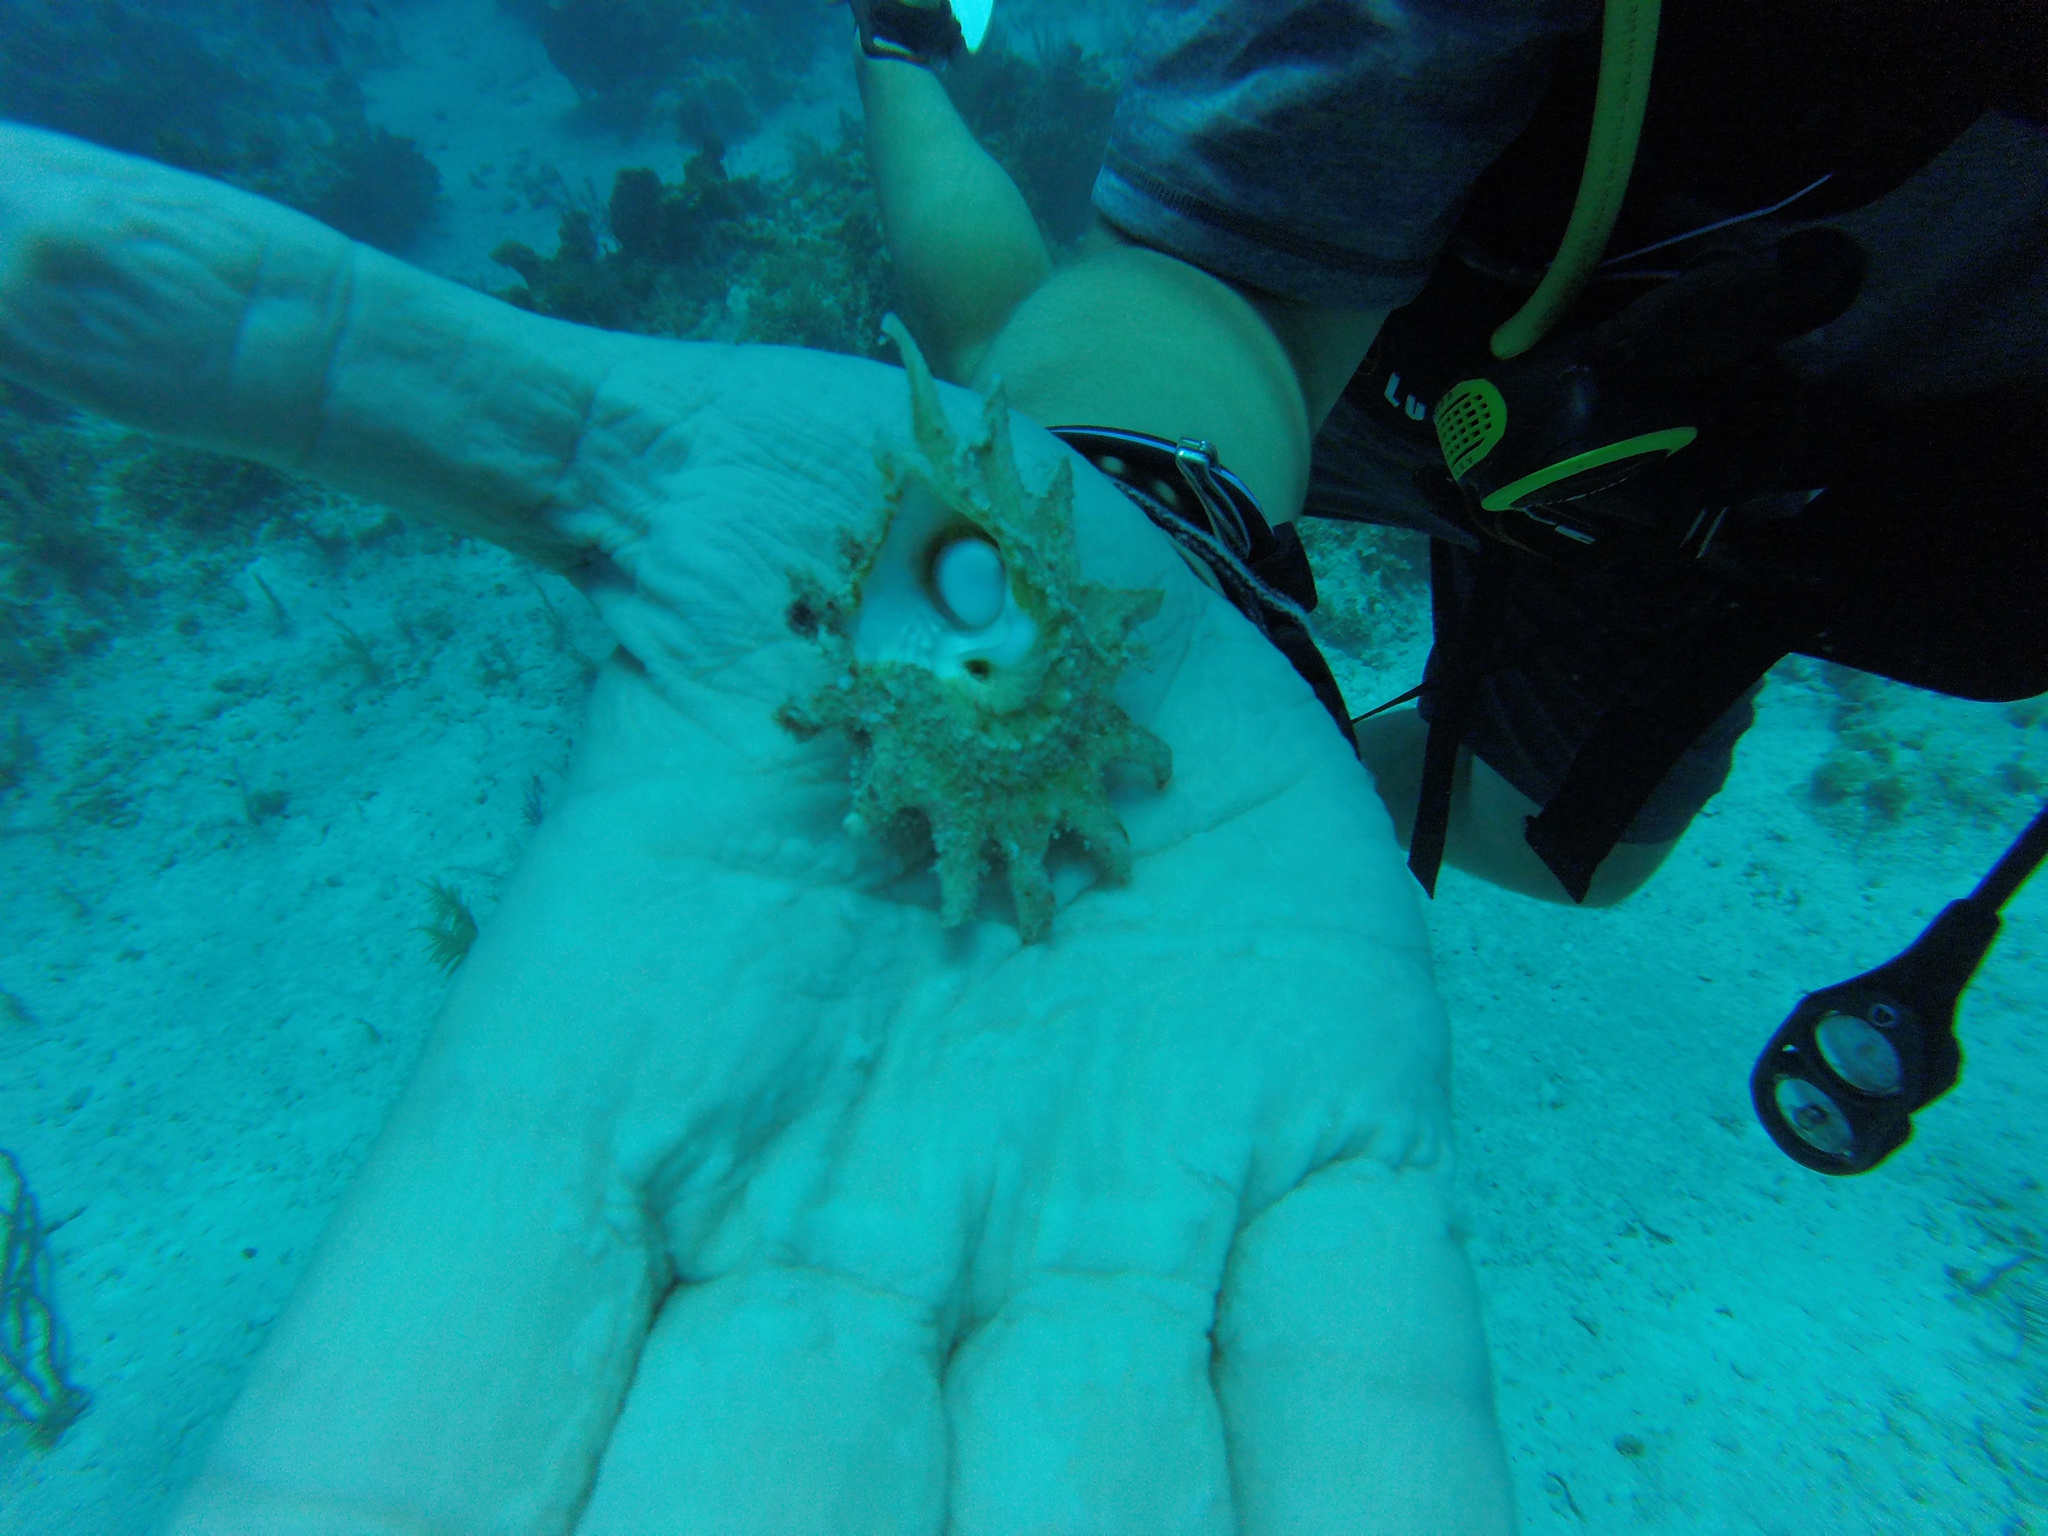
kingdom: Animalia
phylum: Mollusca
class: Gastropoda
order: Trochida
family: Turbinidae
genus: Lithopoma
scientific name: Lithopoma phoebium
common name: Long-spined starsnail
